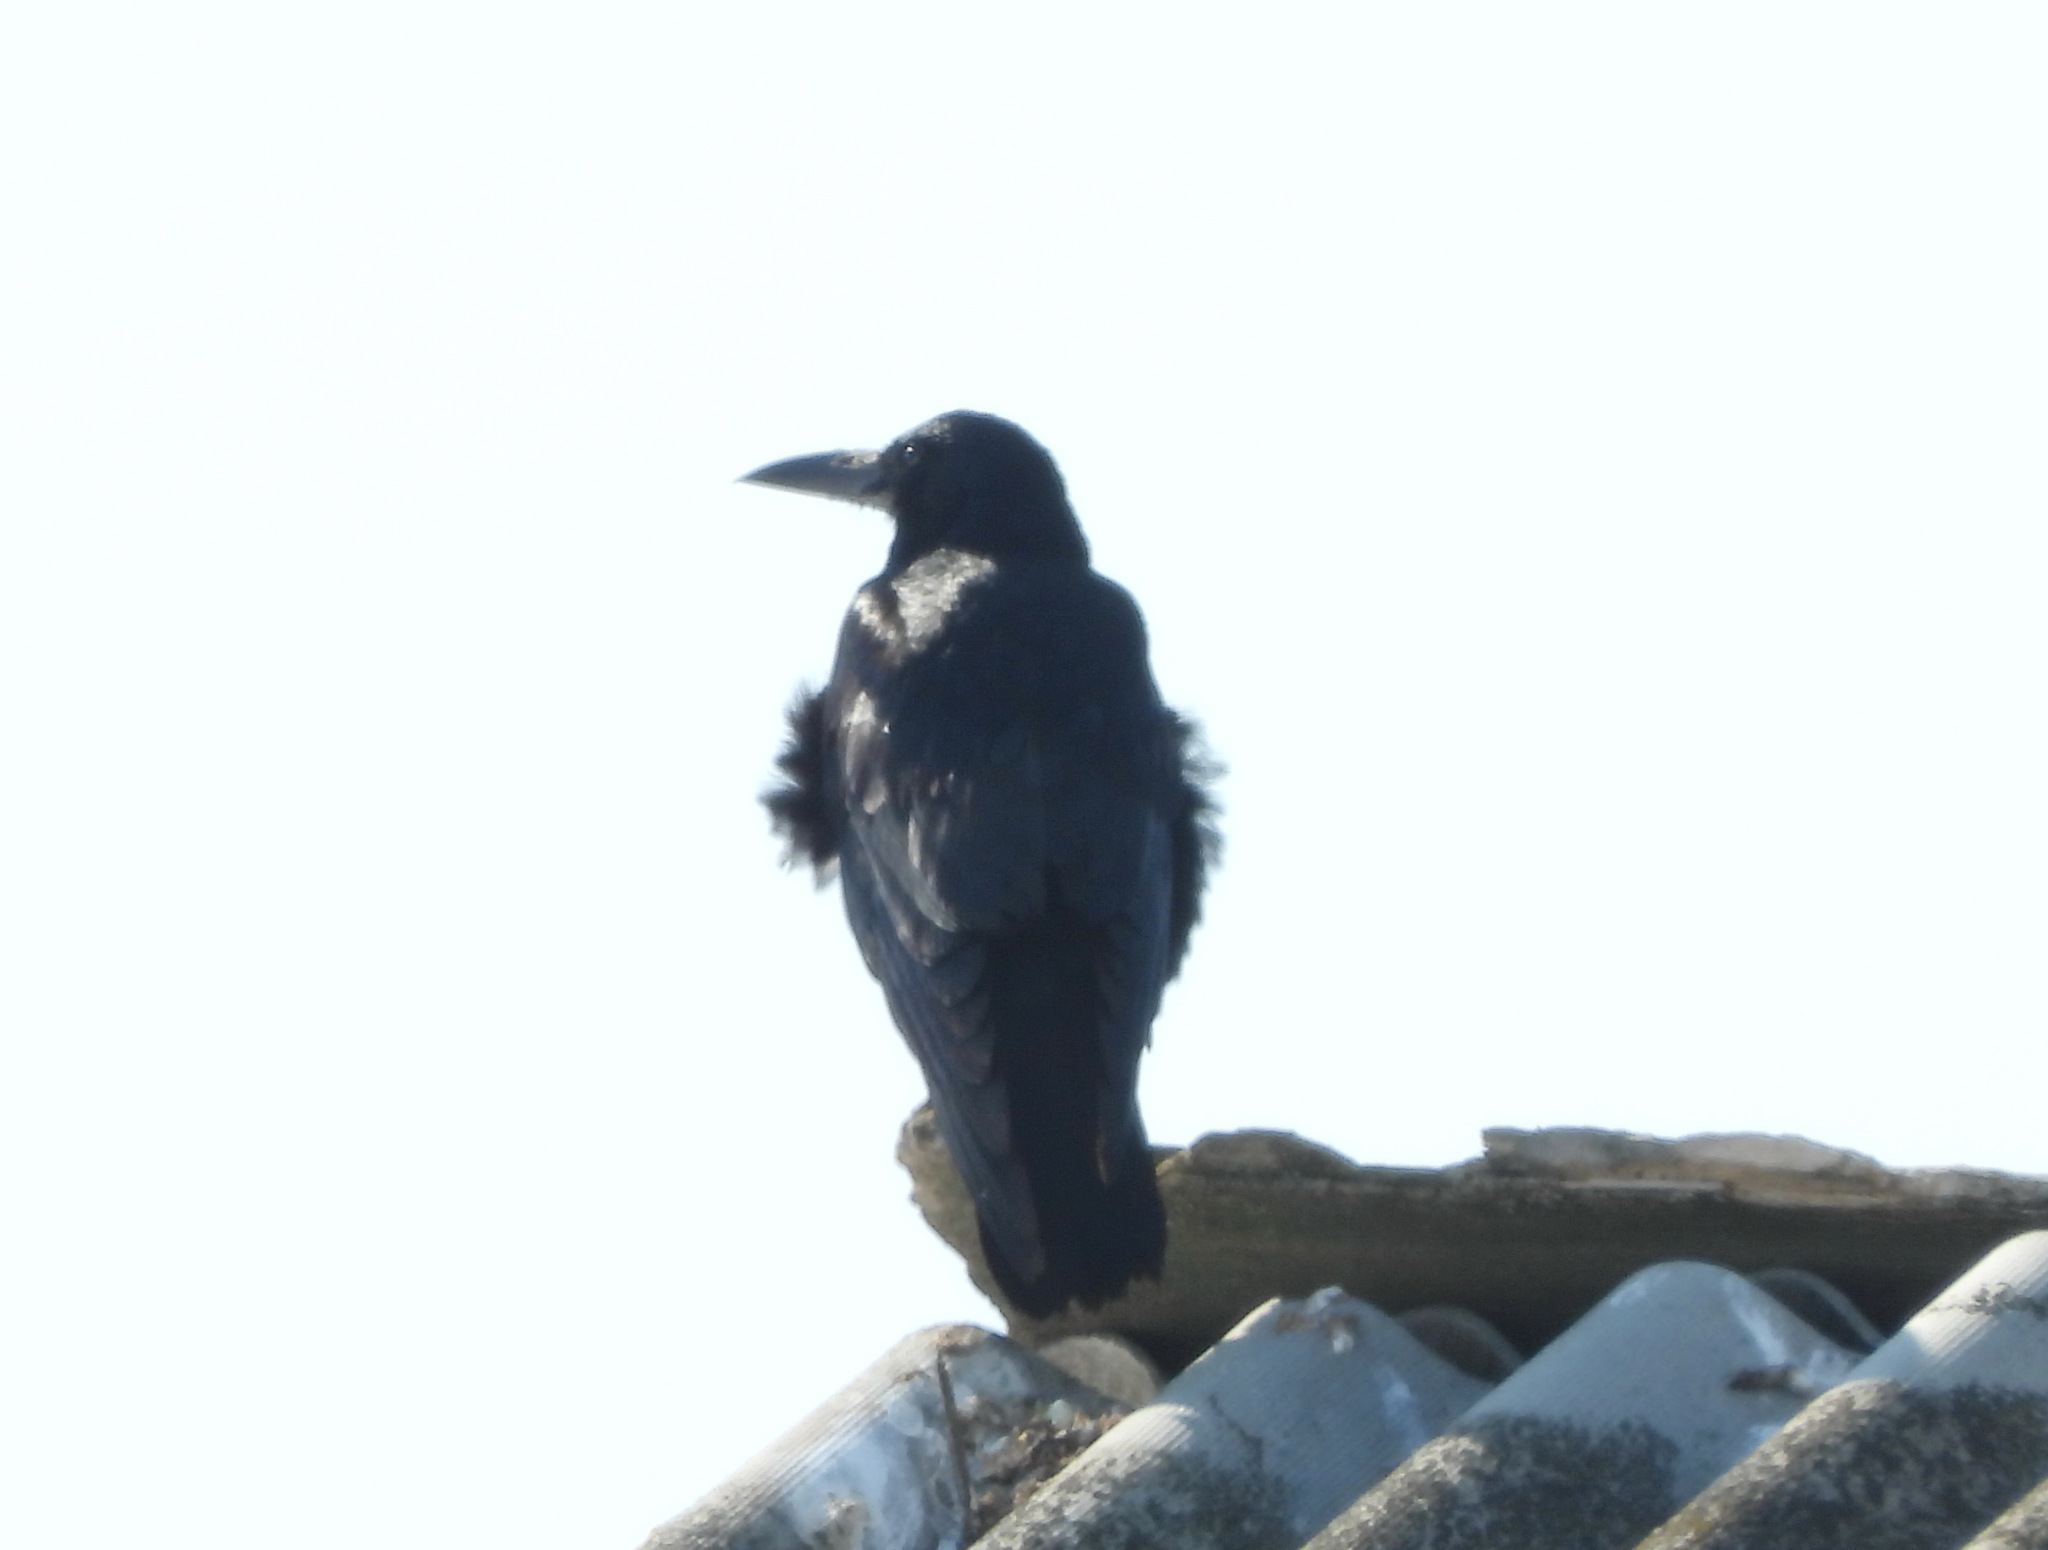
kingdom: Animalia
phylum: Chordata
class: Aves
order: Passeriformes
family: Corvidae
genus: Corvus
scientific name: Corvus frugilegus
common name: Rook
